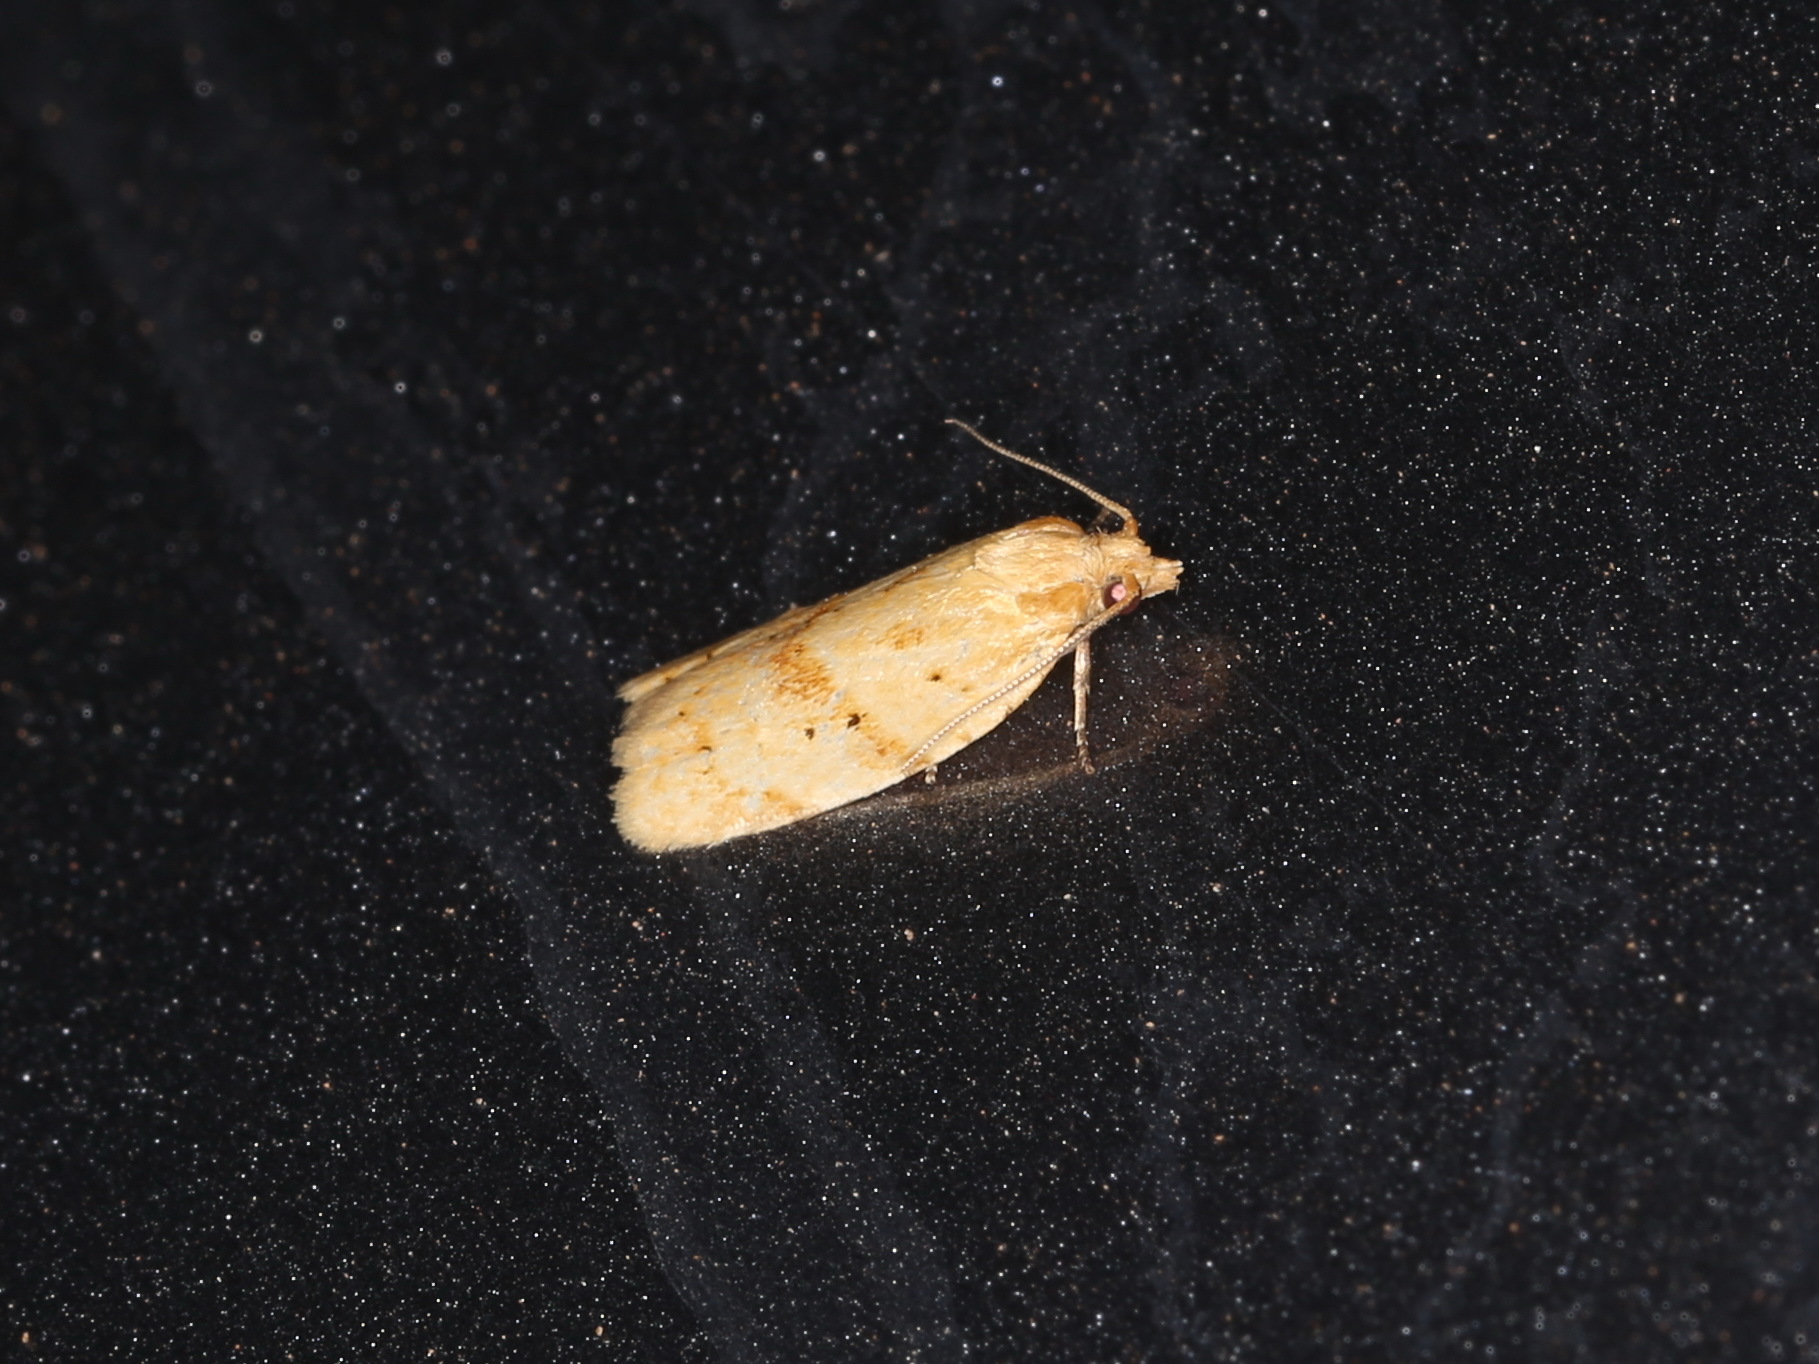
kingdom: Animalia
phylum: Arthropoda
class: Insecta
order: Lepidoptera
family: Tortricidae
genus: Clepsis
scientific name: Clepsis
